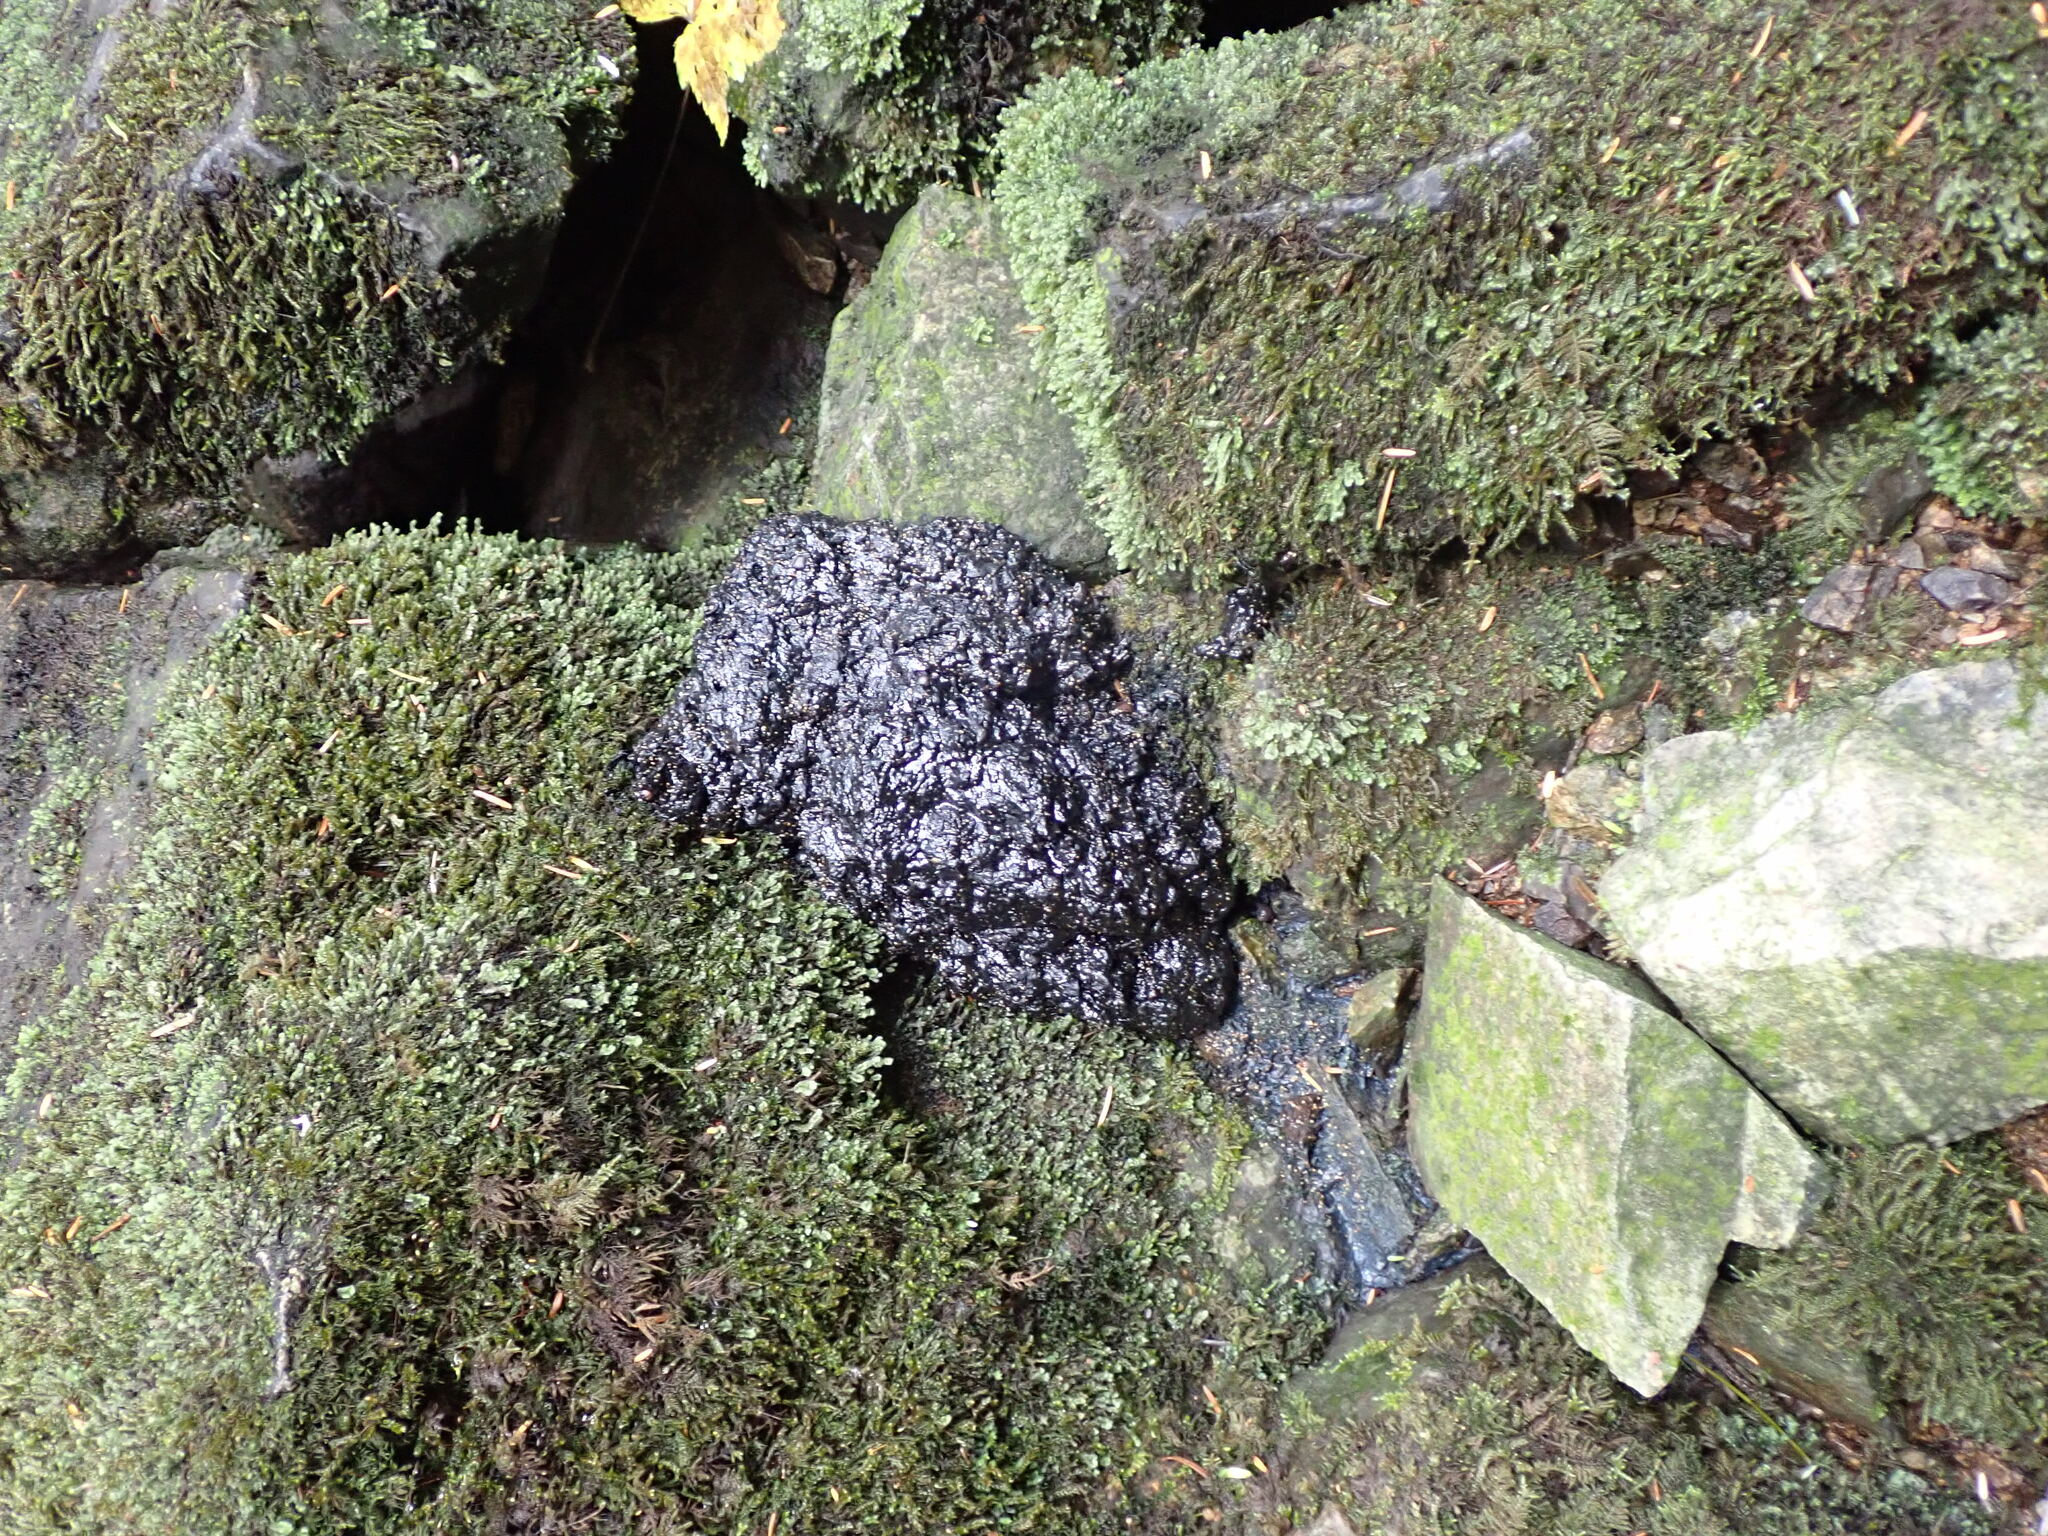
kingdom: Animalia
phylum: Chordata
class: Mammalia
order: Carnivora
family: Ursidae
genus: Ursus
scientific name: Ursus americanus
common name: American black bear
